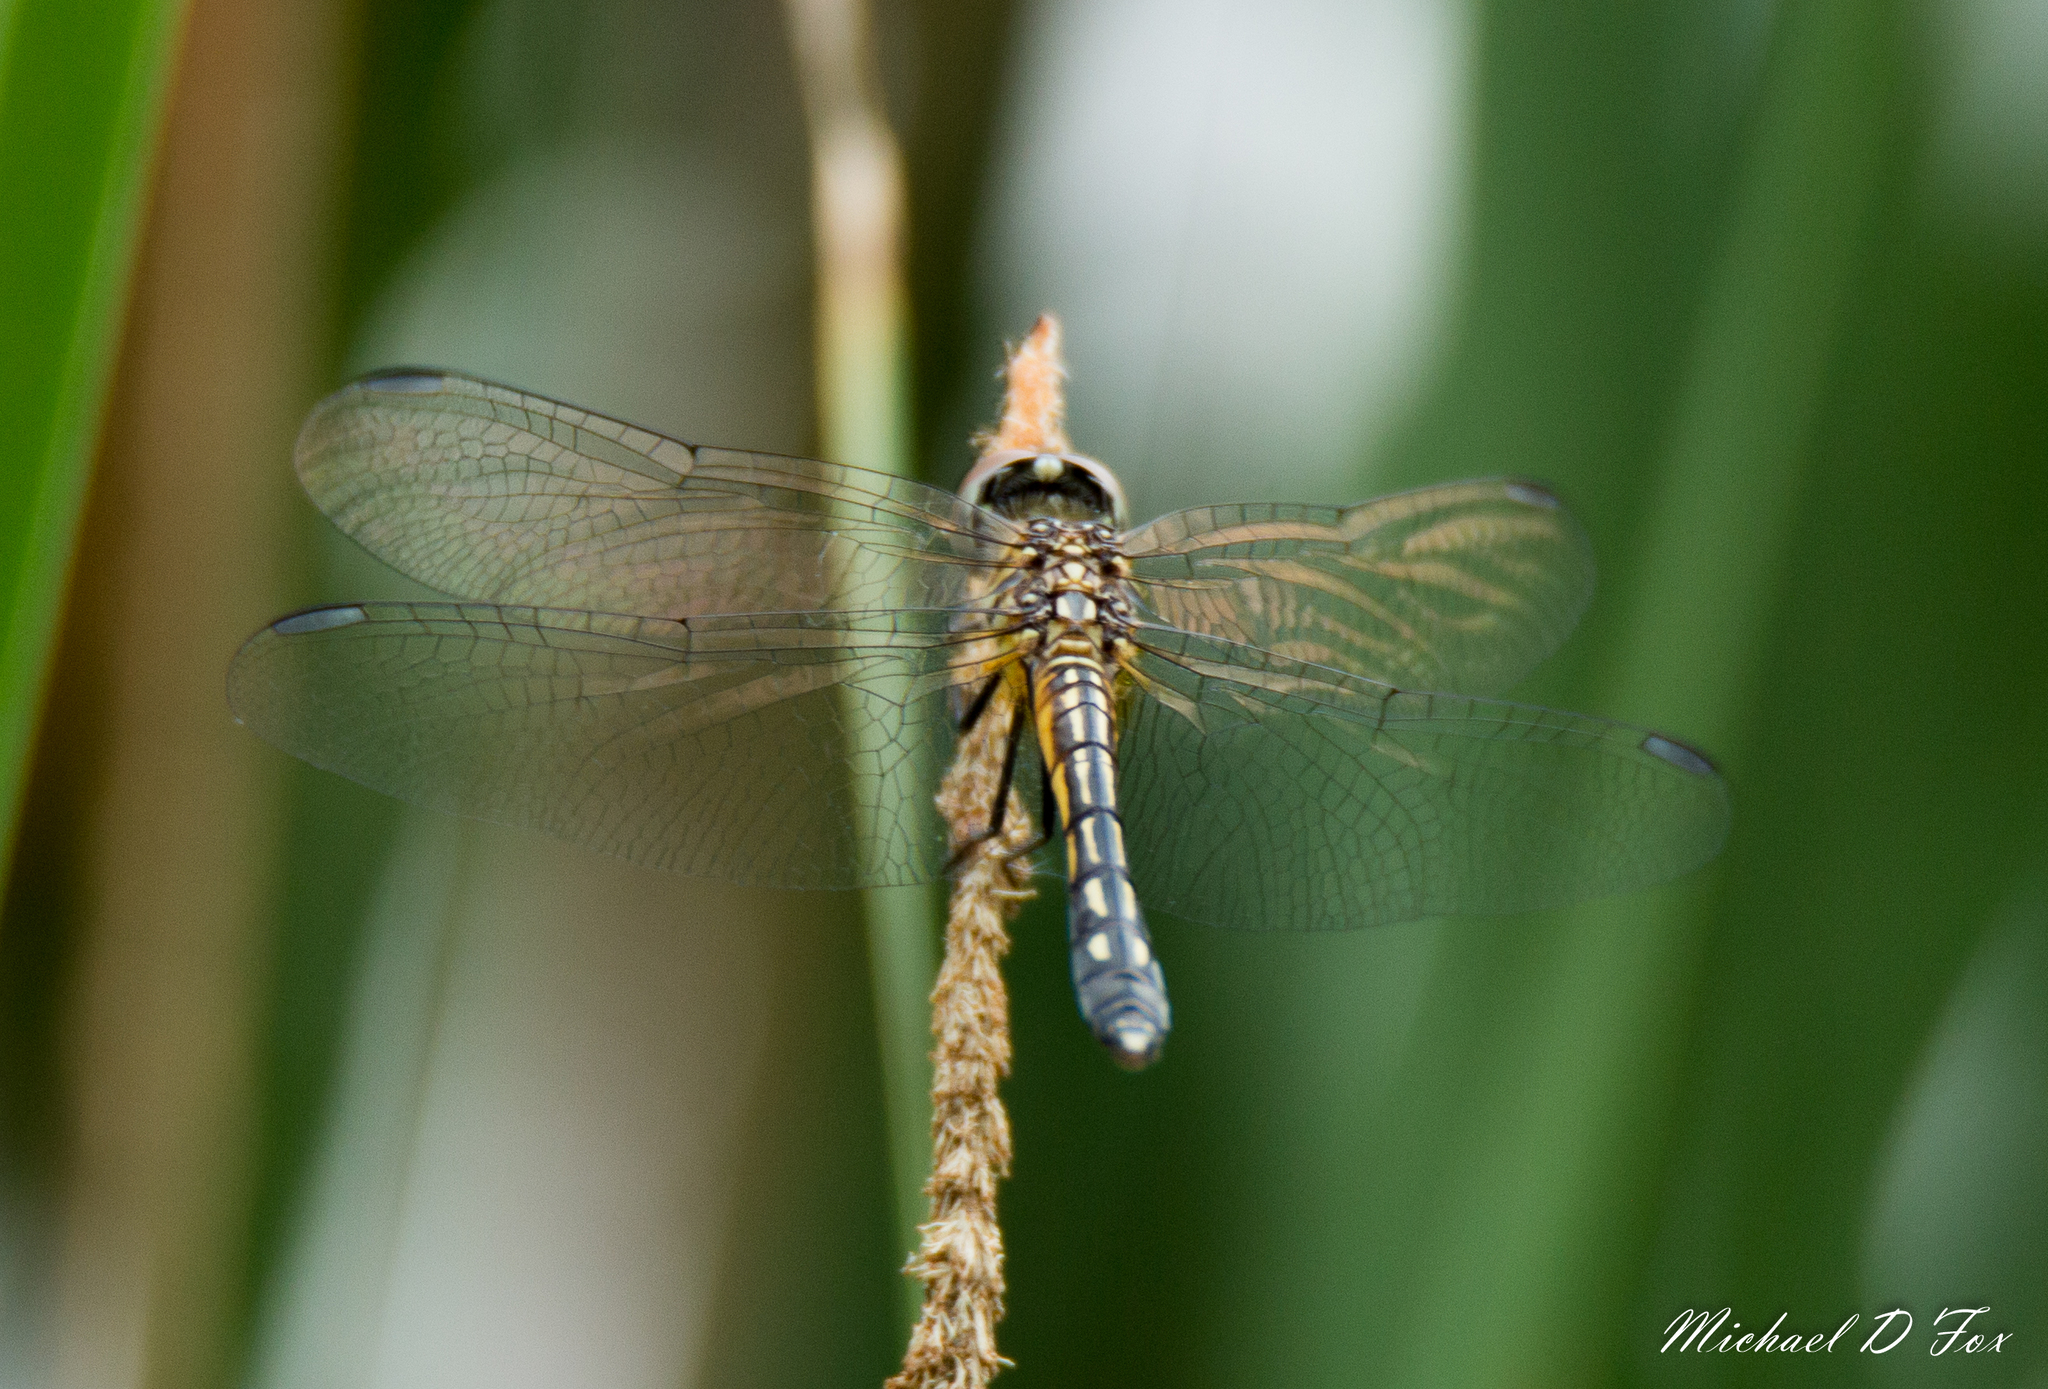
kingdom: Animalia
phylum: Arthropoda
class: Insecta
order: Odonata
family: Libellulidae
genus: Pachydiplax
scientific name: Pachydiplax longipennis
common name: Blue dasher
